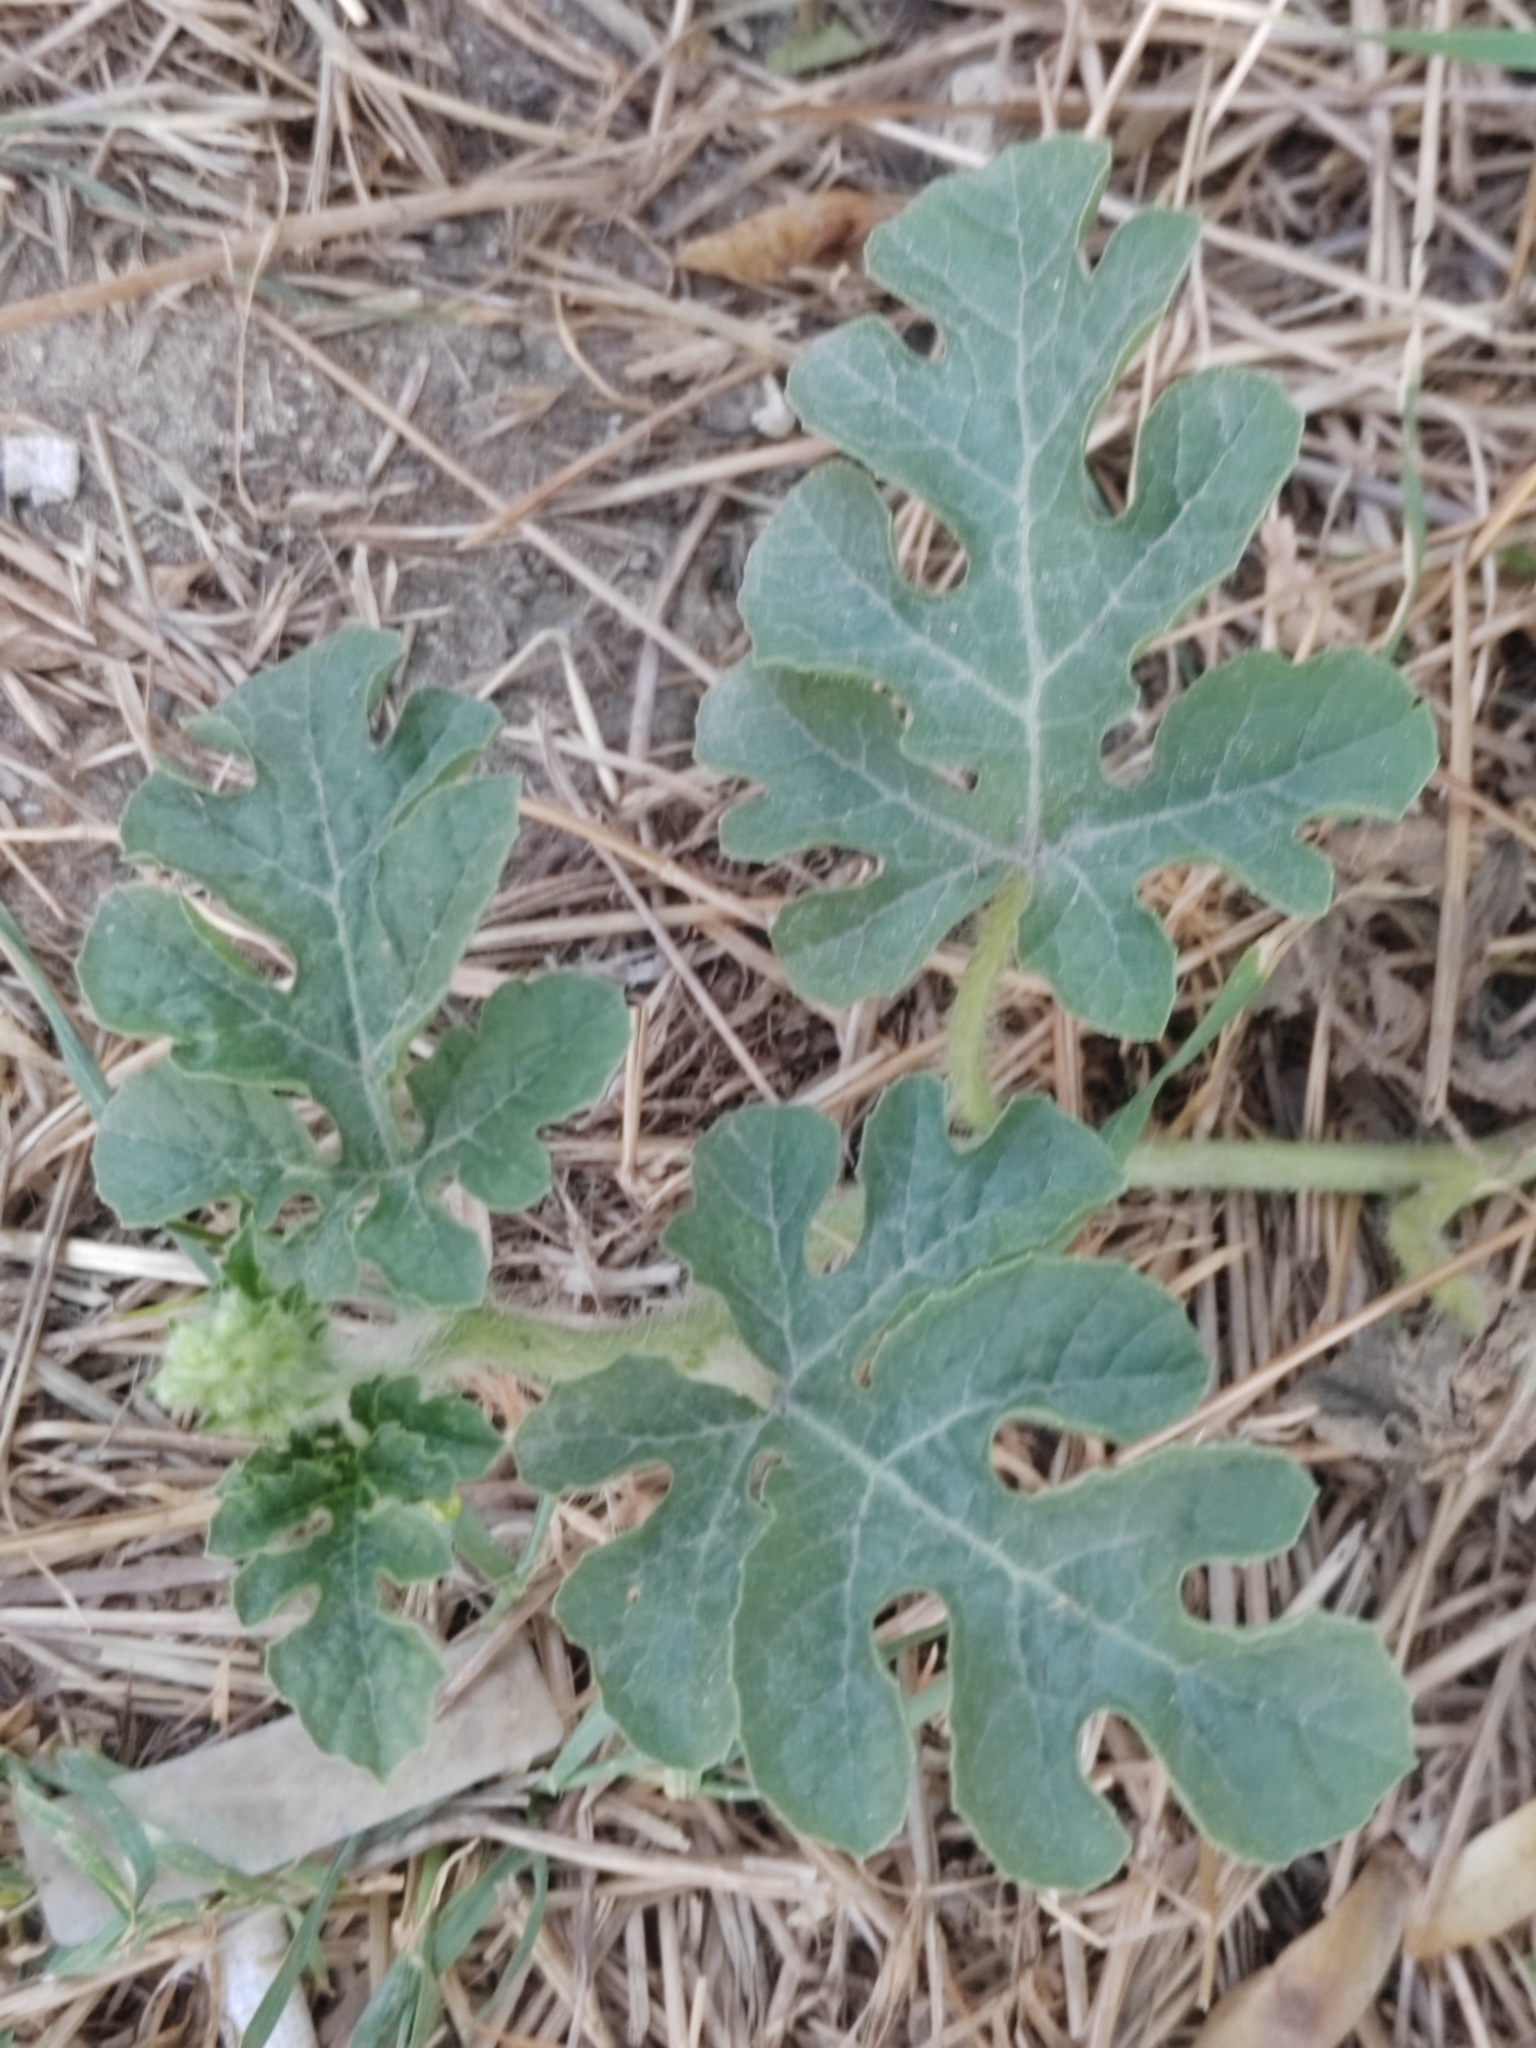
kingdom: Plantae
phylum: Tracheophyta
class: Magnoliopsida
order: Cucurbitales
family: Cucurbitaceae
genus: Citrullus
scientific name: Citrullus lanatus
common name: Watermelon
